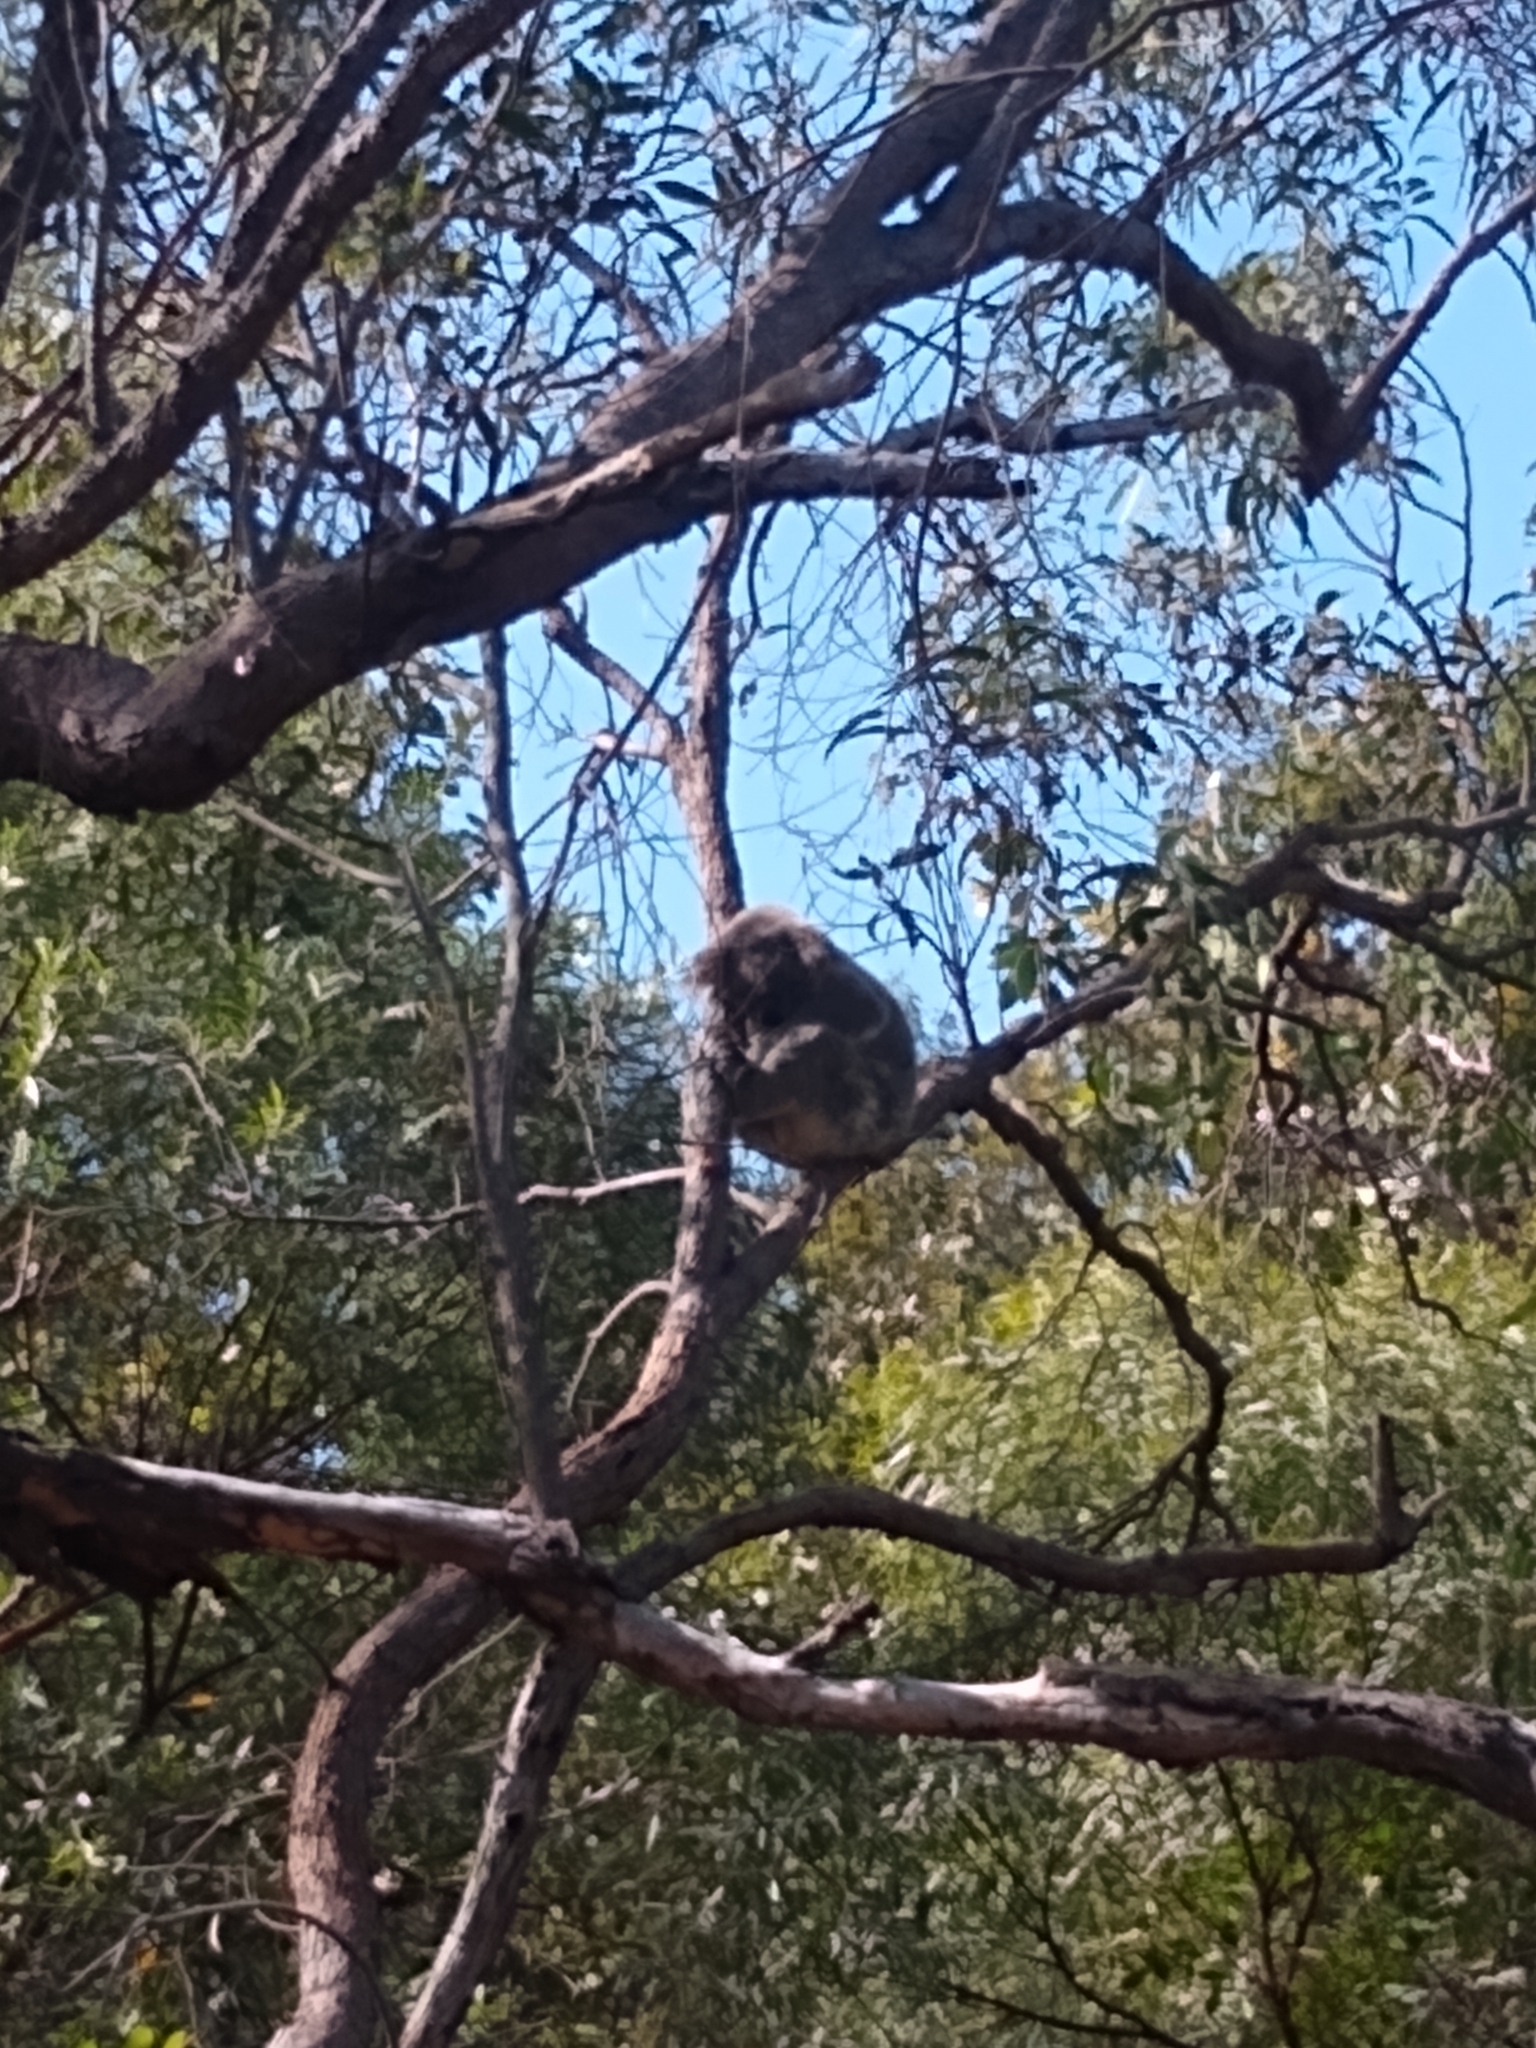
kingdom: Animalia
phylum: Chordata
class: Mammalia
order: Diprotodontia
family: Phascolarctidae
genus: Phascolarctos
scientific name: Phascolarctos cinereus
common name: Koala
